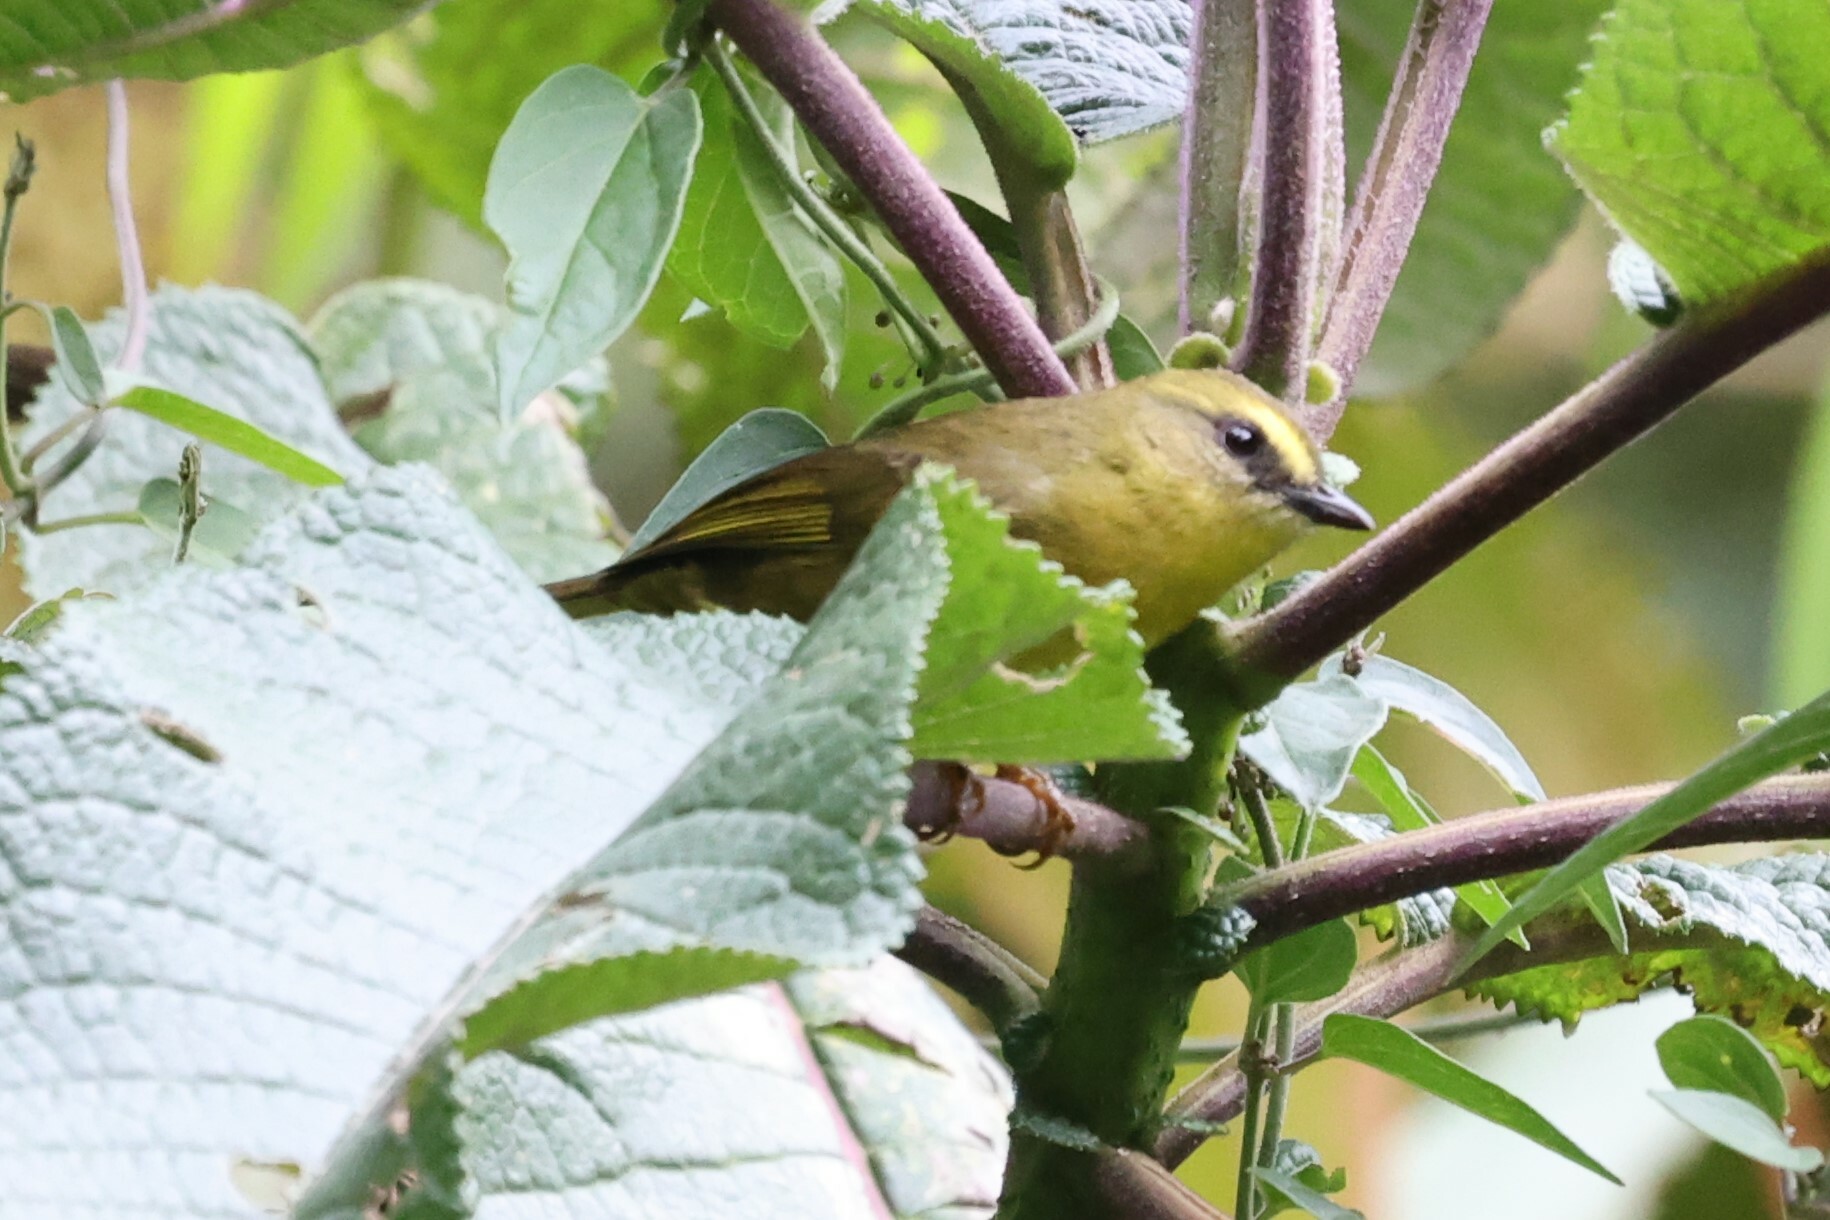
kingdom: Animalia
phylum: Chordata
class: Aves
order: Passeriformes
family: Parulidae
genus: Myiothlypis
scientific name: Myiothlypis luteoviridis
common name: Citrine warbler
